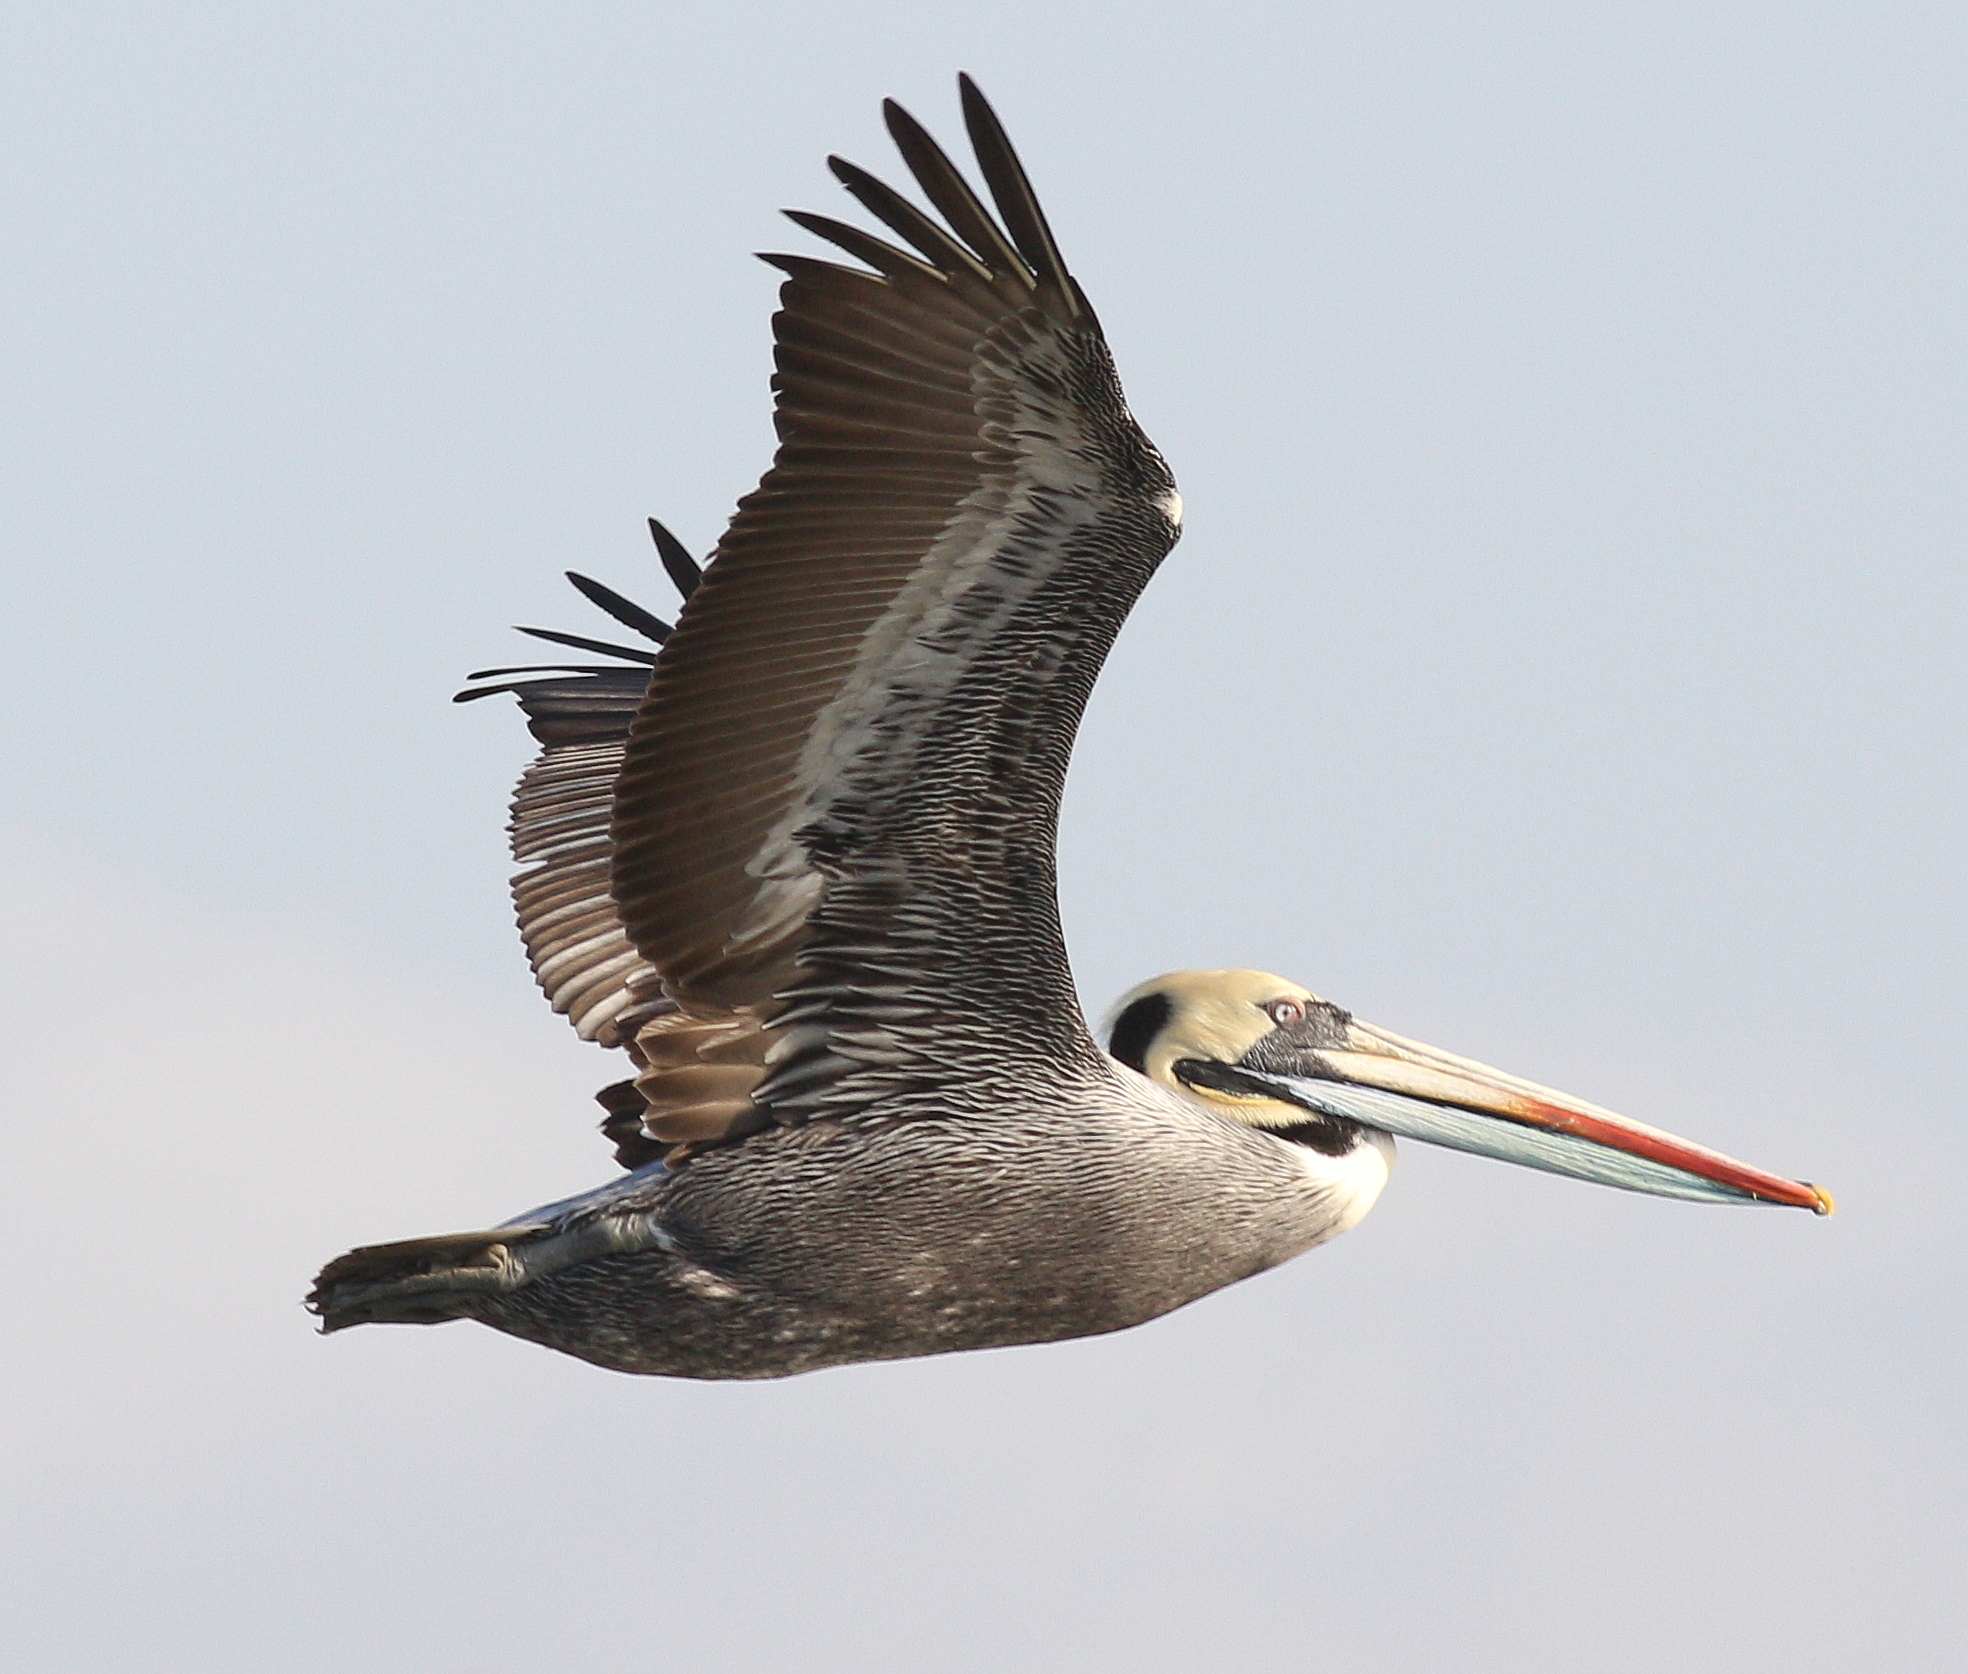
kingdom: Animalia
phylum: Chordata
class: Aves
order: Pelecaniformes
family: Pelecanidae
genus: Pelecanus
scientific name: Pelecanus thagus
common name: Peruvian pelican
